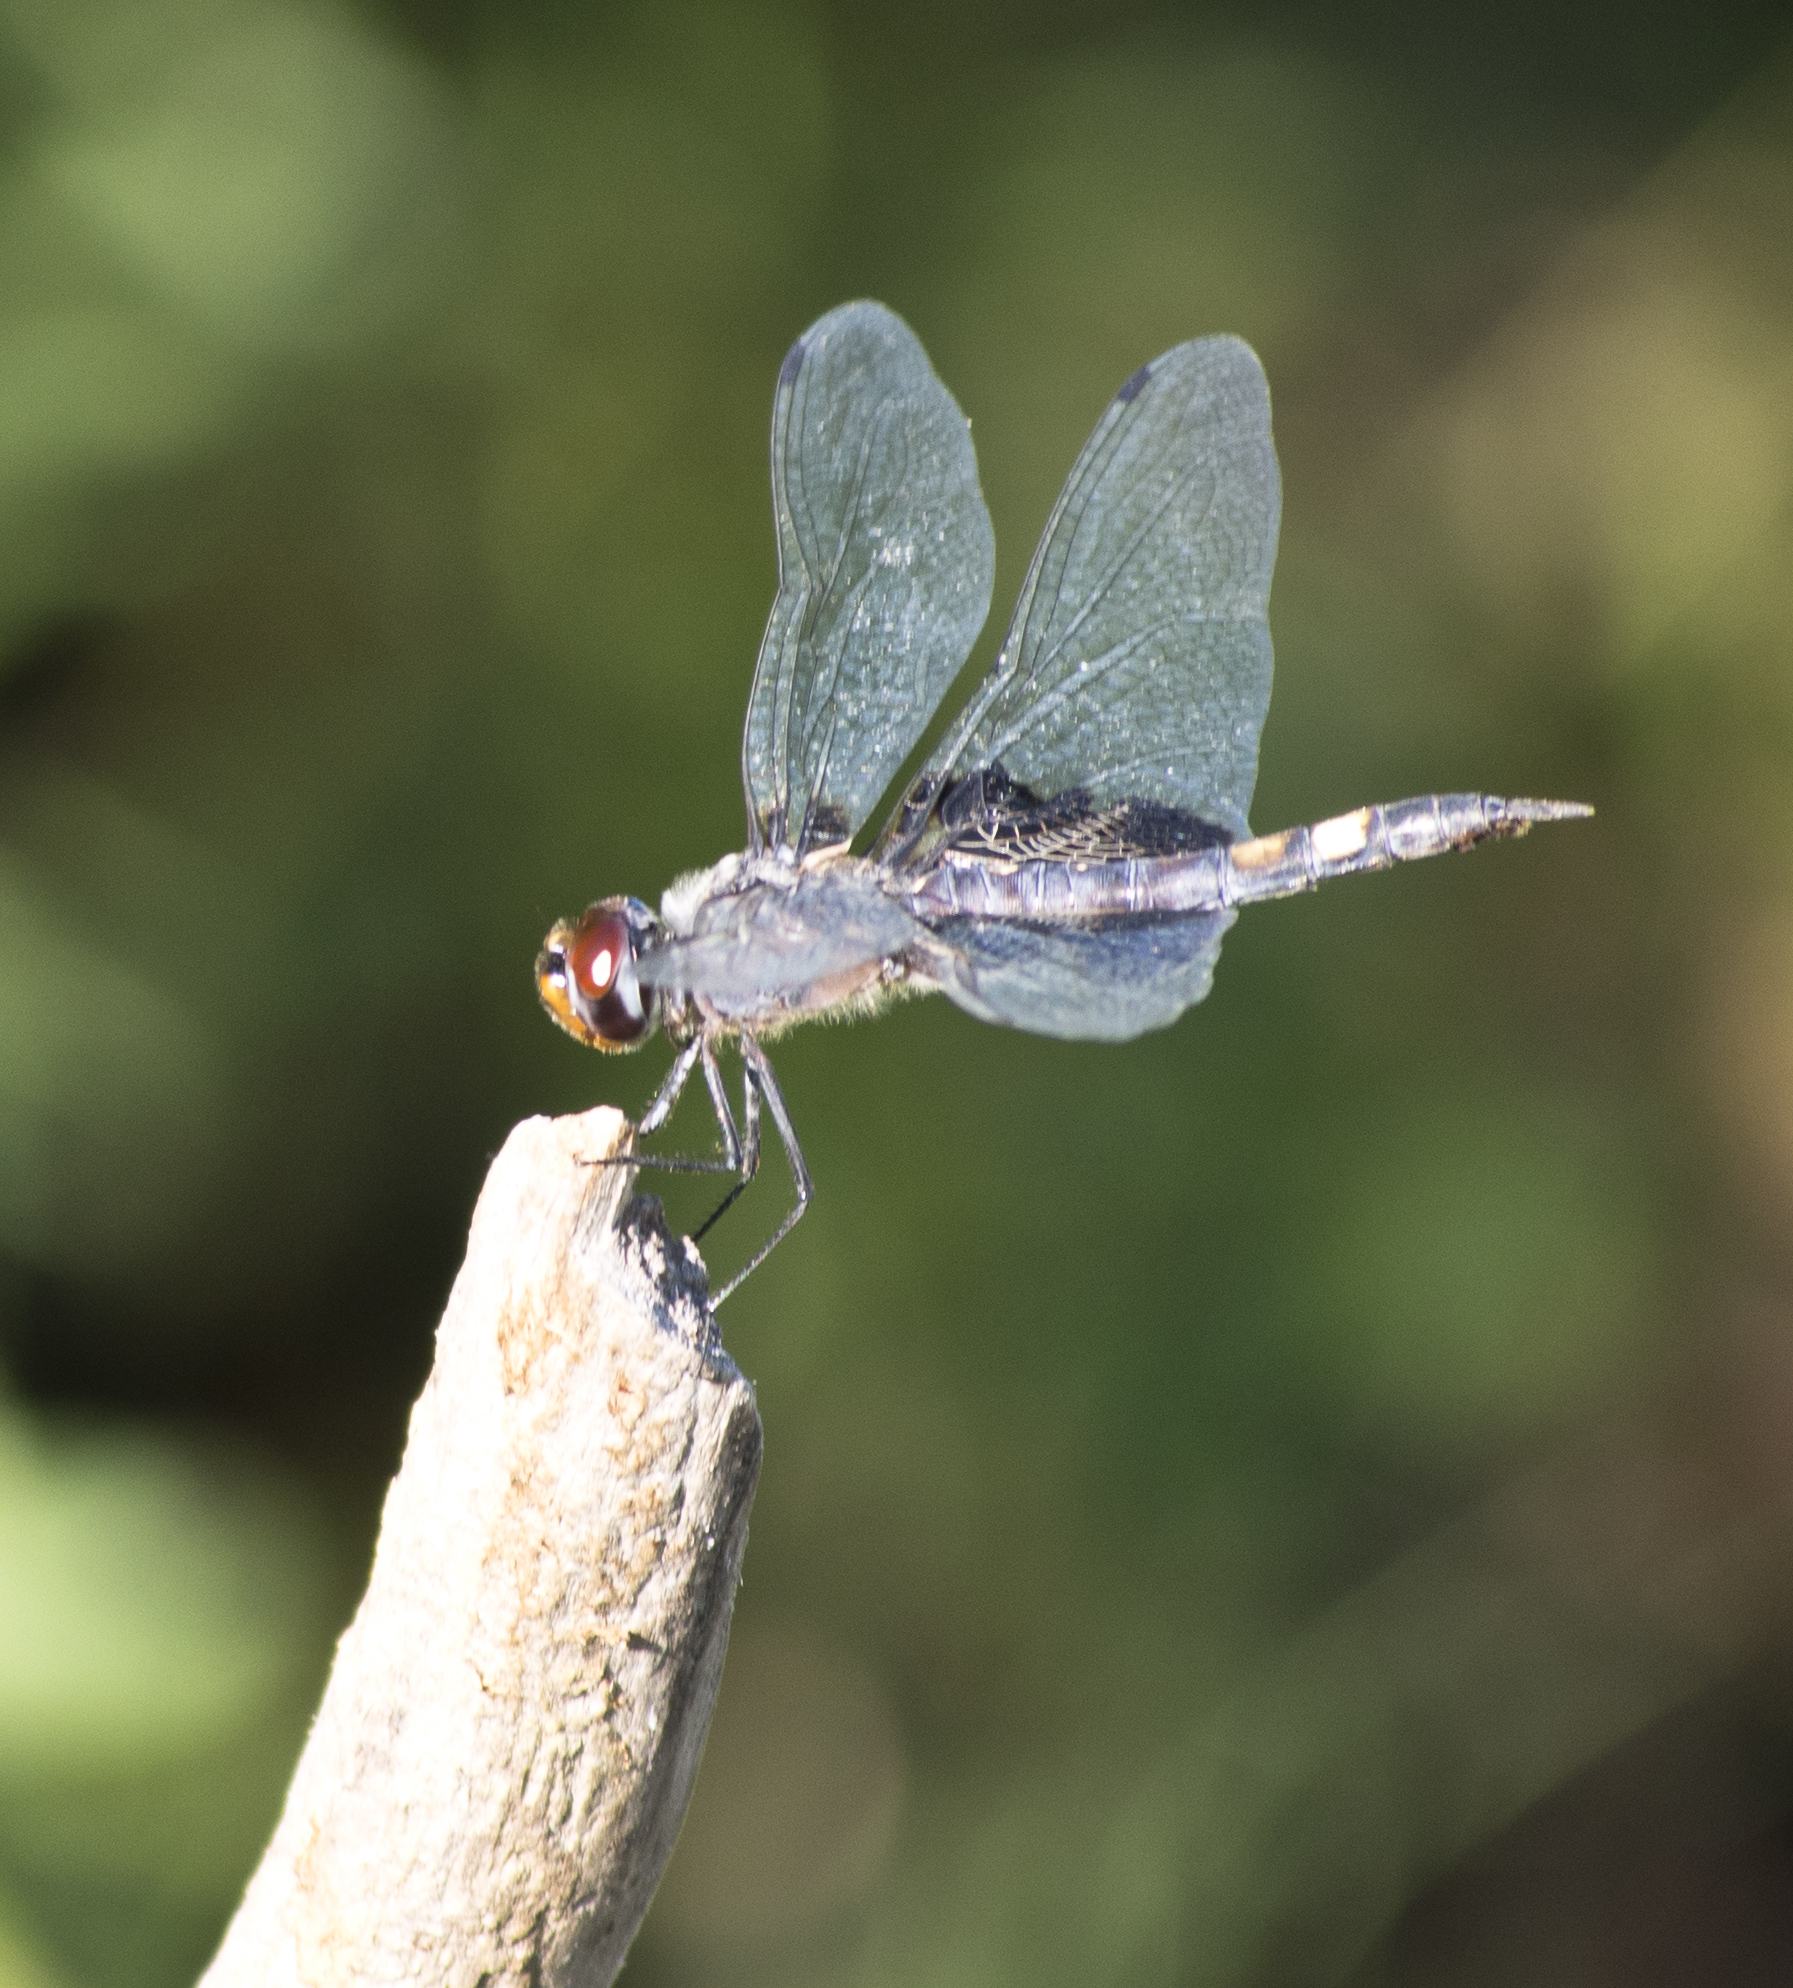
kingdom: Animalia
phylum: Arthropoda
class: Insecta
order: Odonata
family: Libellulidae
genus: Tramea
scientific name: Tramea lacerata
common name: Black saddlebags
